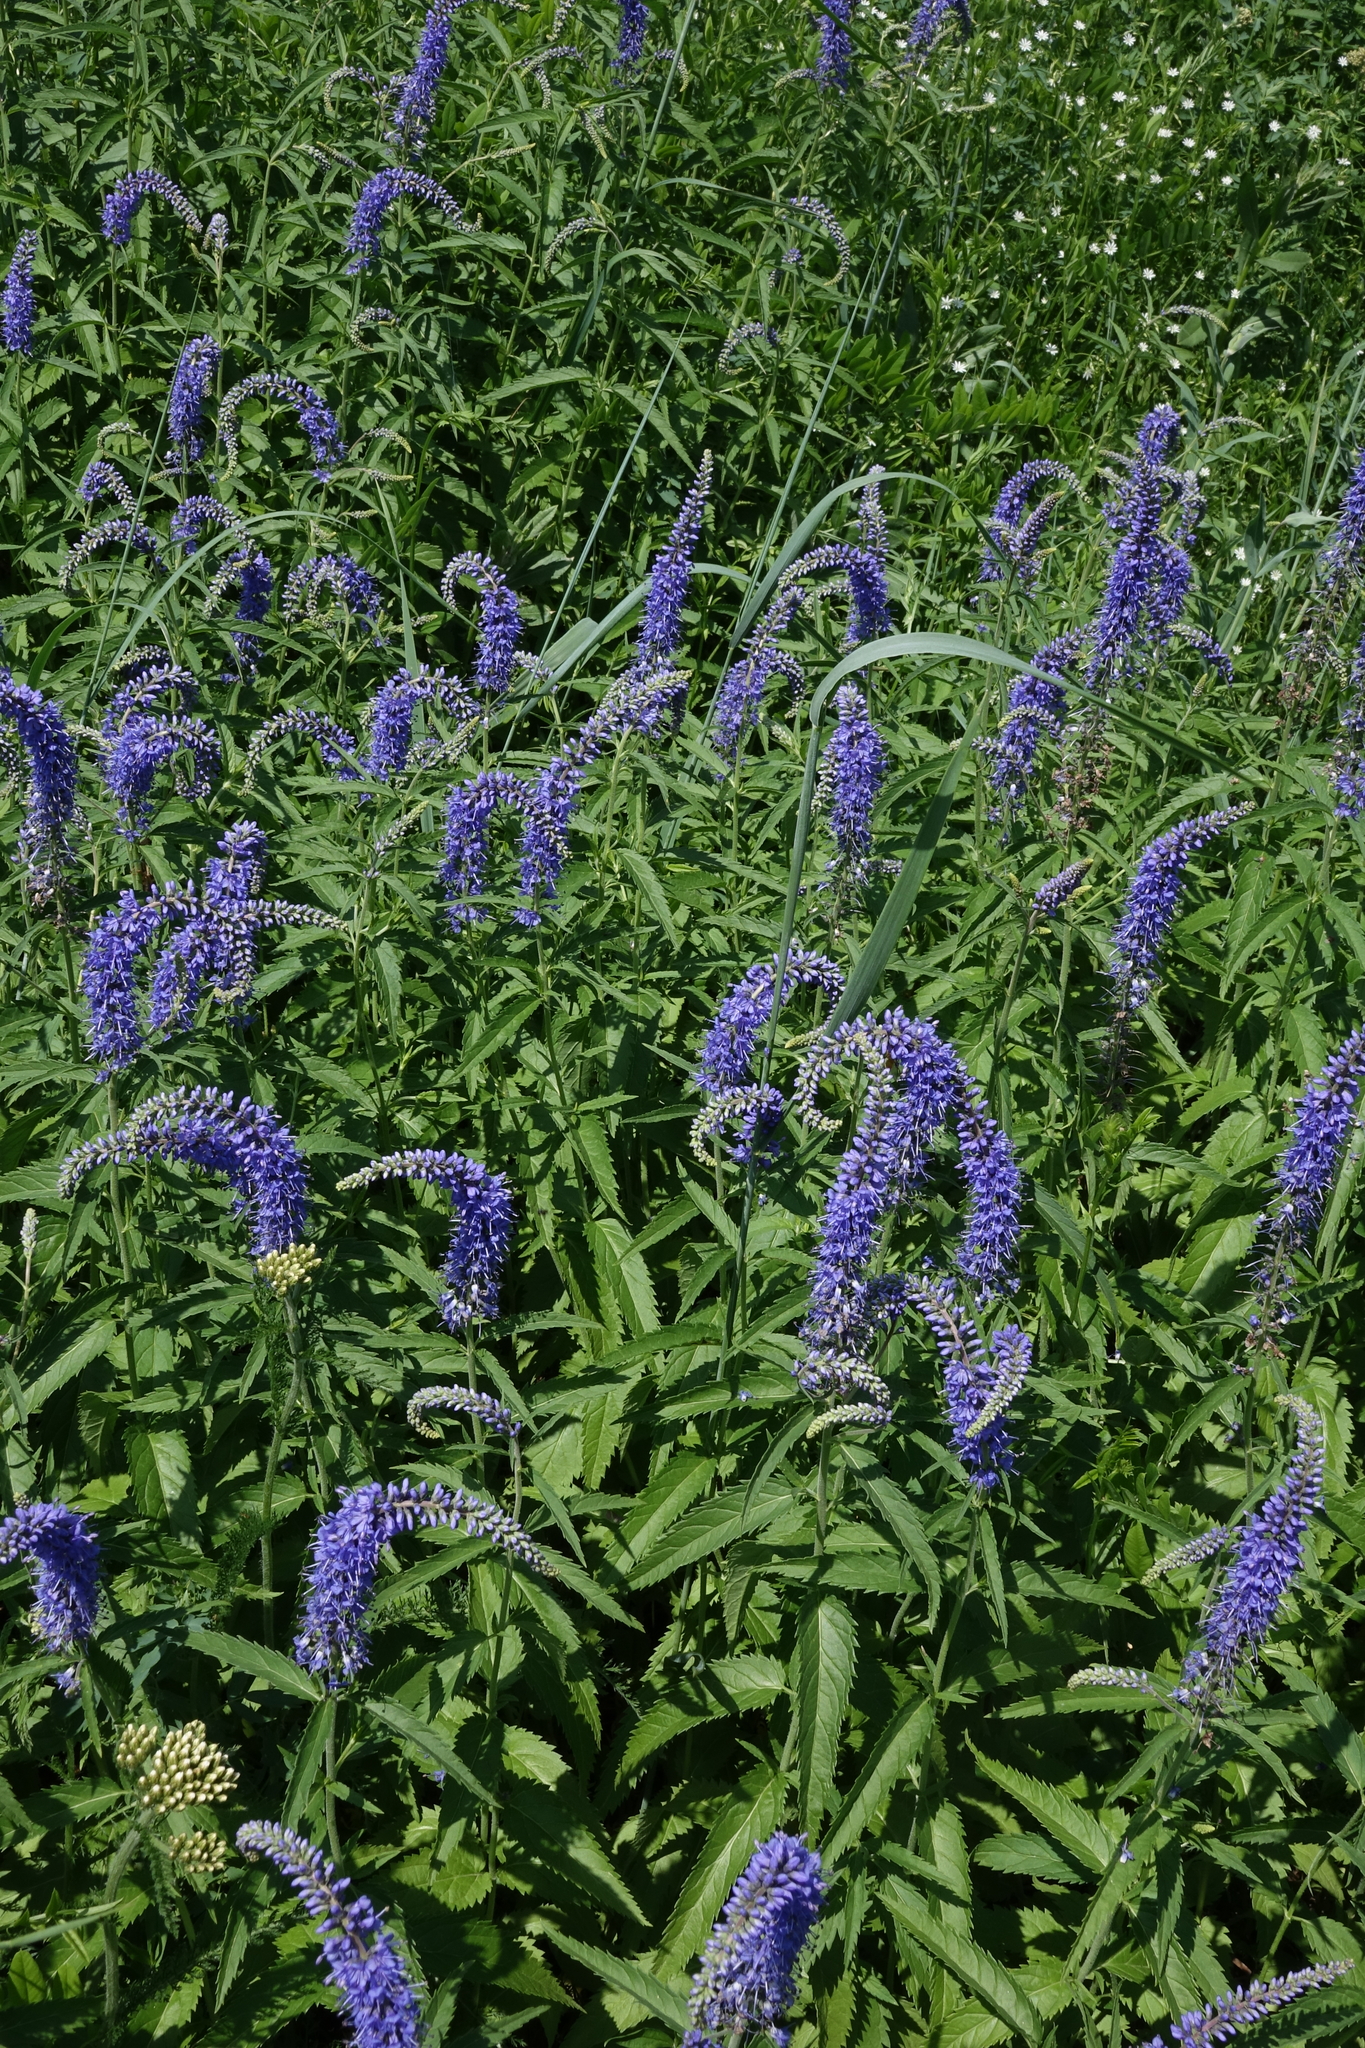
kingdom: Plantae
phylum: Tracheophyta
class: Magnoliopsida
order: Lamiales
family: Plantaginaceae
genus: Veronica
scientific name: Veronica longifolia
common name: Garden speedwell
